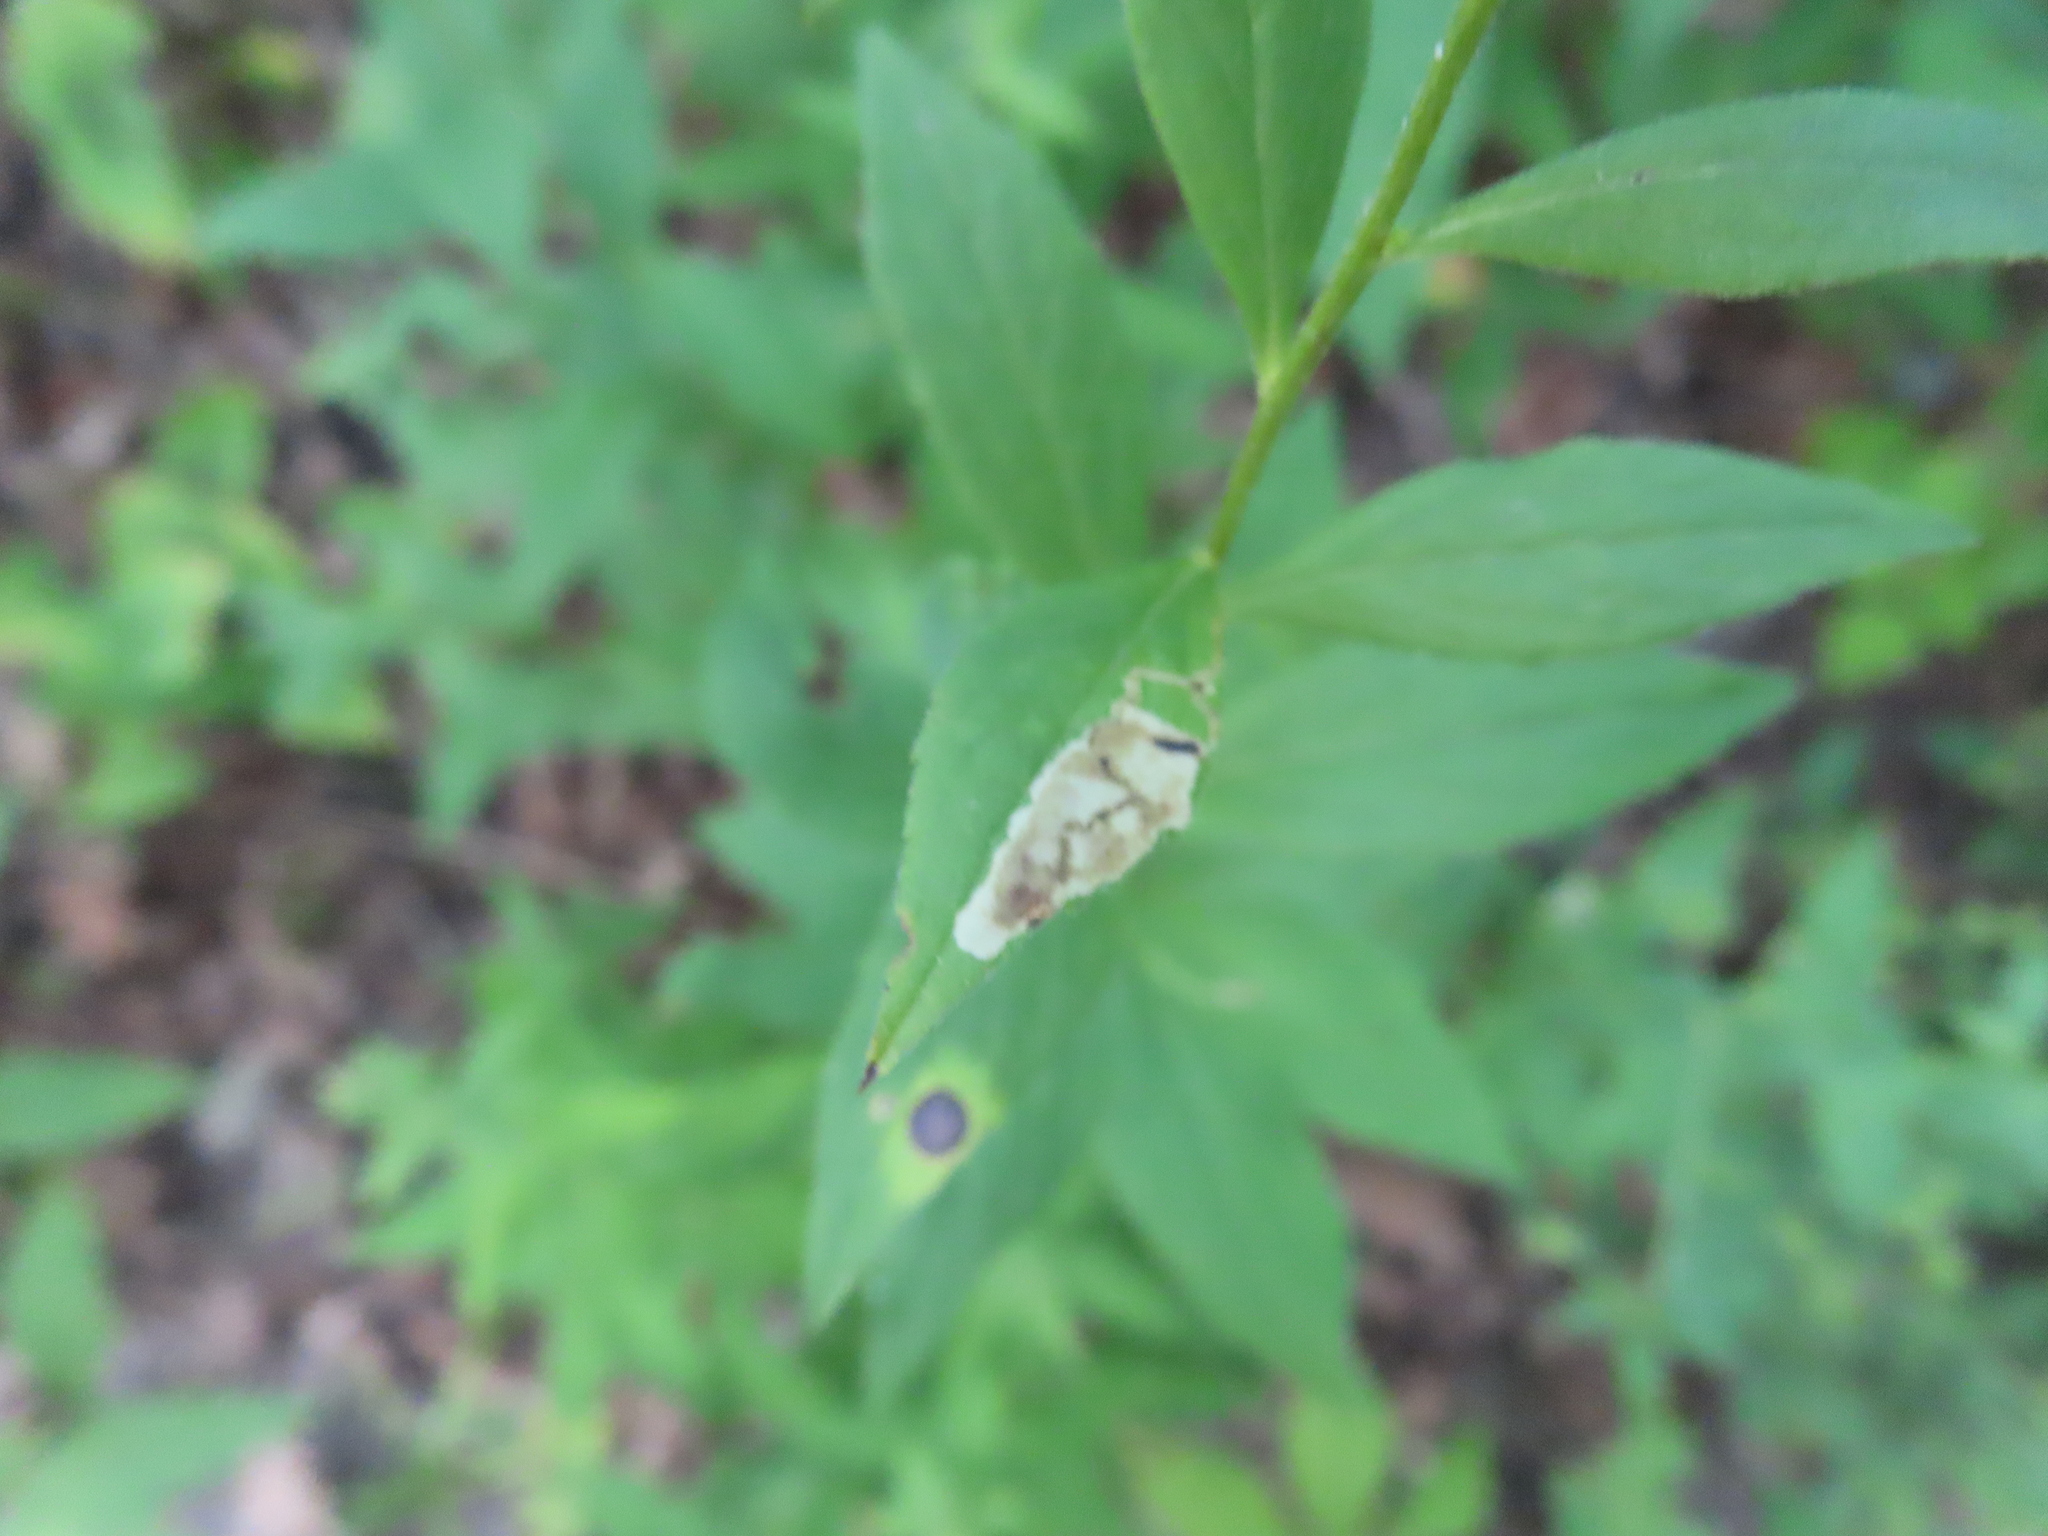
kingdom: Animalia
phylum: Arthropoda
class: Insecta
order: Diptera
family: Cecidomyiidae
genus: Asteromyia
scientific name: Asteromyia carbonifera
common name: Carbonifera goldenrod gall midge
